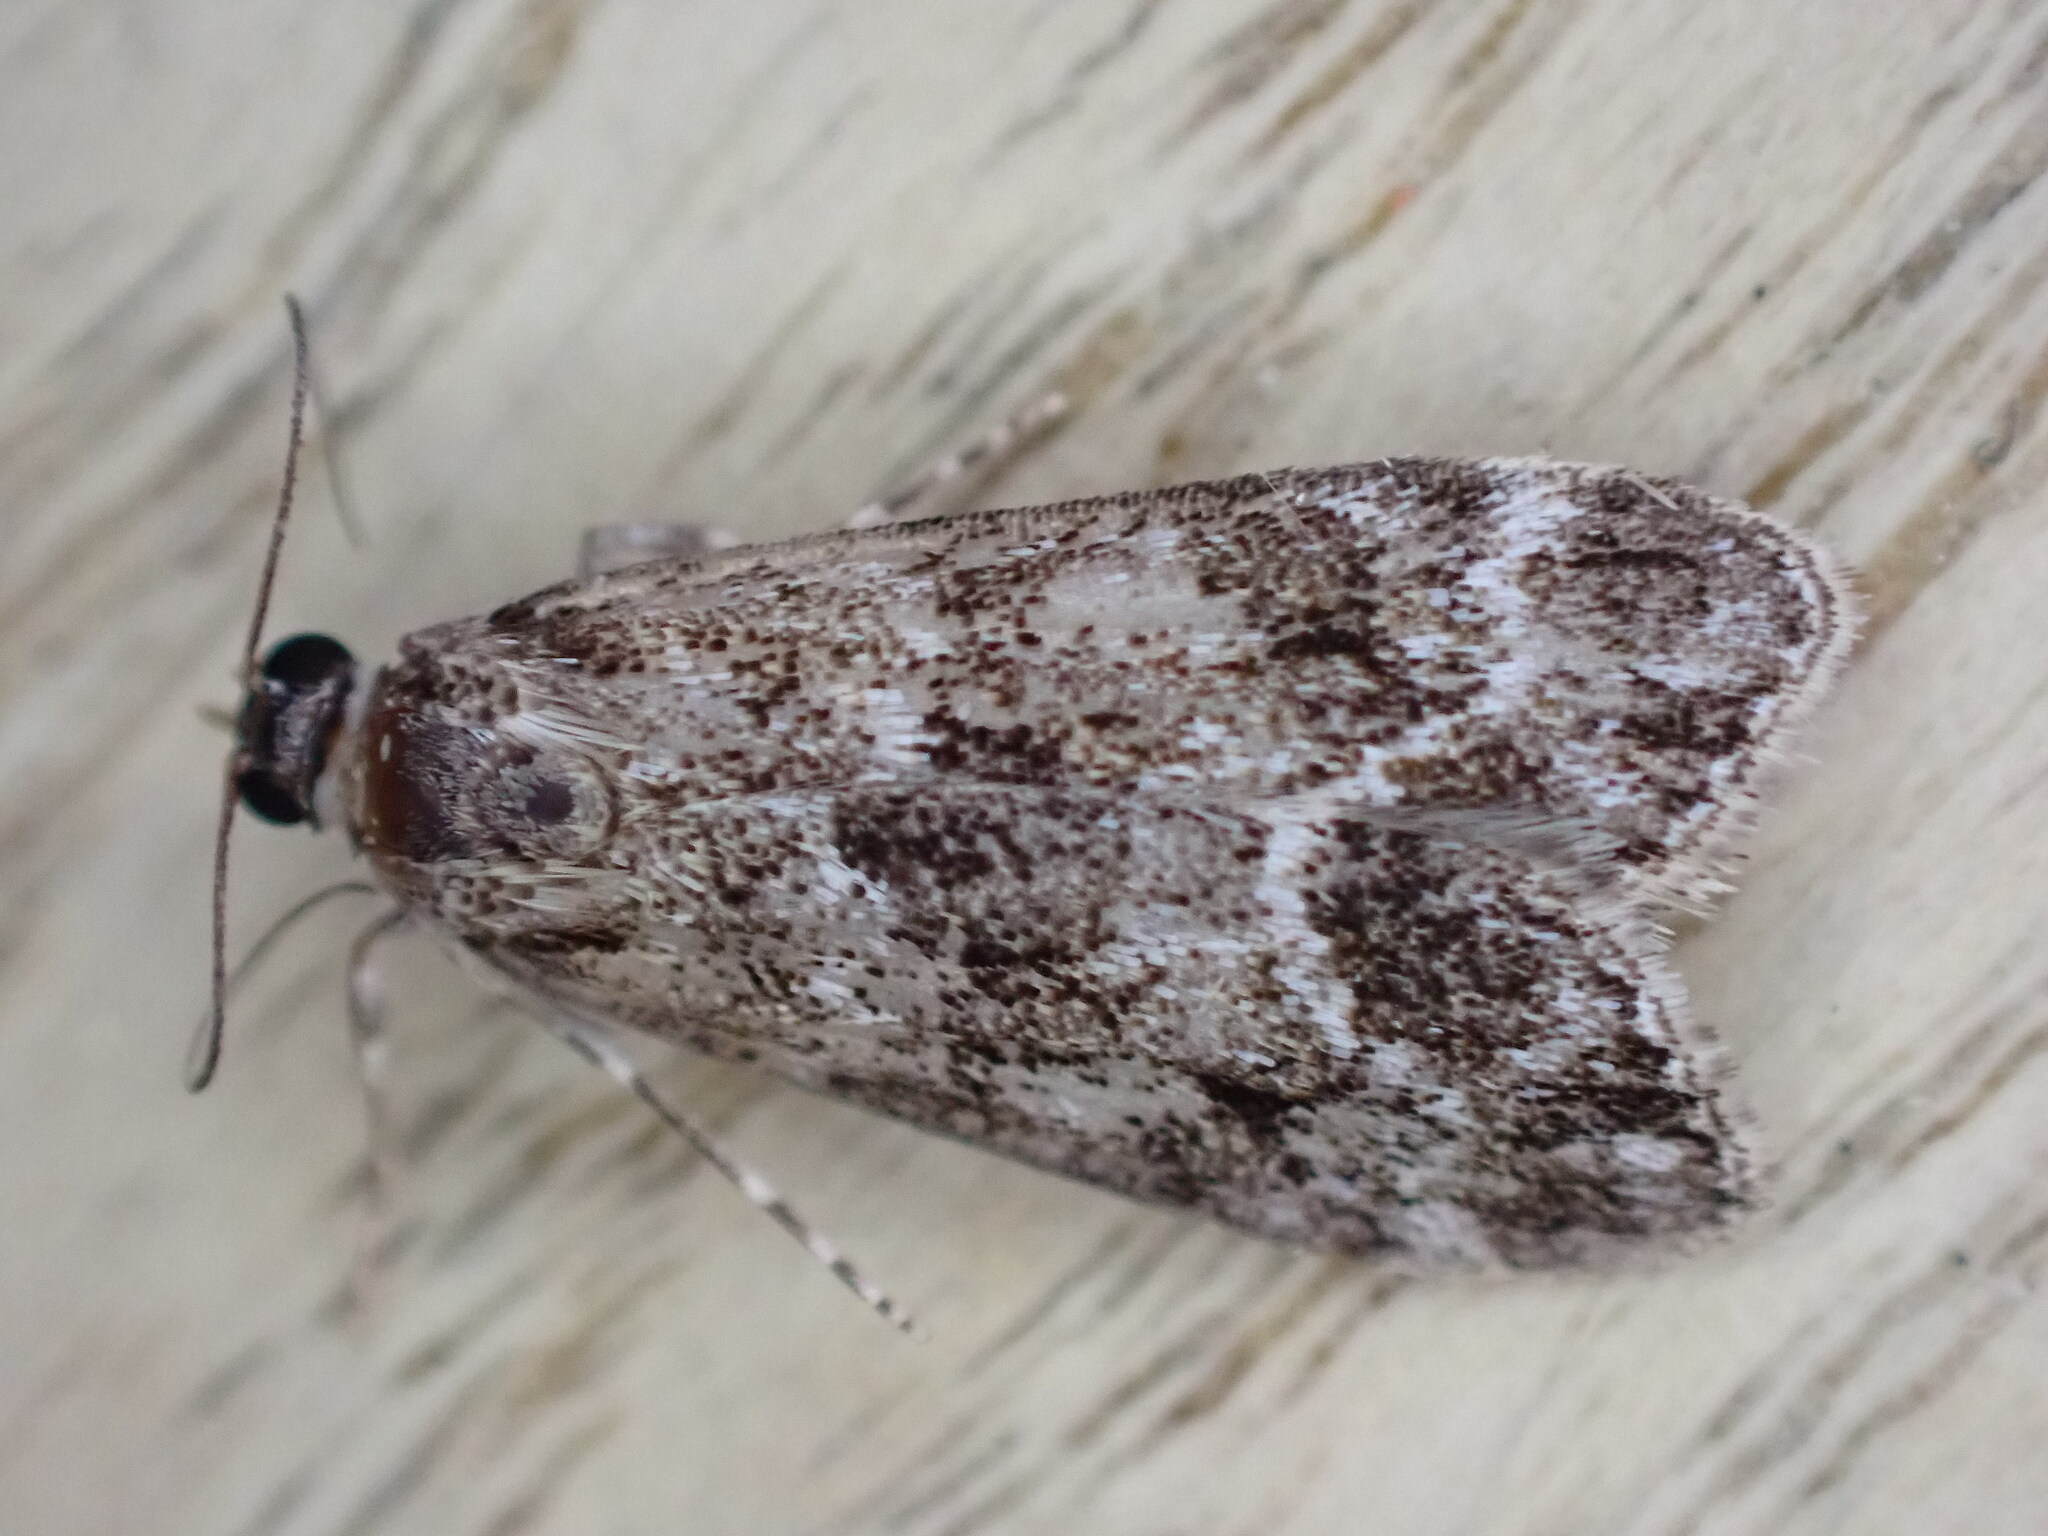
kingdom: Animalia
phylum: Arthropoda
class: Insecta
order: Lepidoptera
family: Crambidae
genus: Eudonia
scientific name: Eudonia mercurella
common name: Small grey
